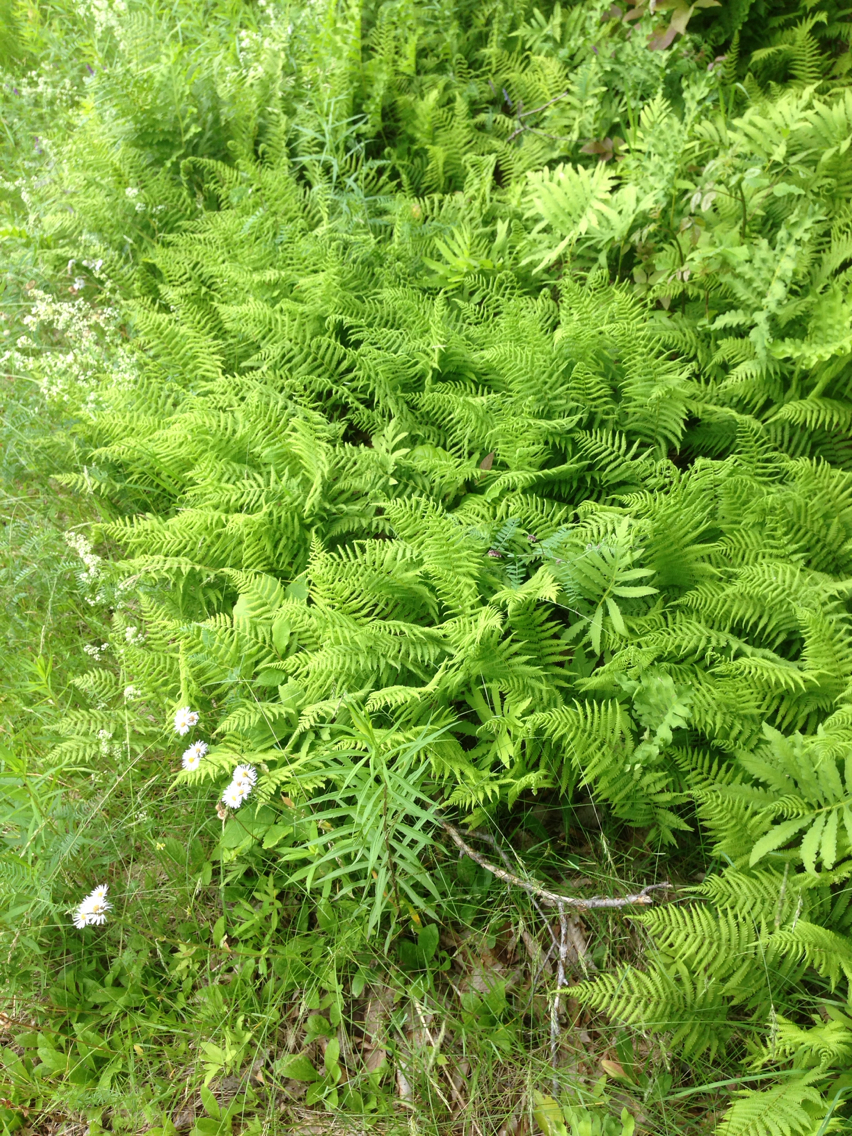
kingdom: Plantae
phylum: Tracheophyta
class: Polypodiopsida
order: Polypodiales
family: Dennstaedtiaceae
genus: Sitobolium
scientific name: Sitobolium punctilobum
